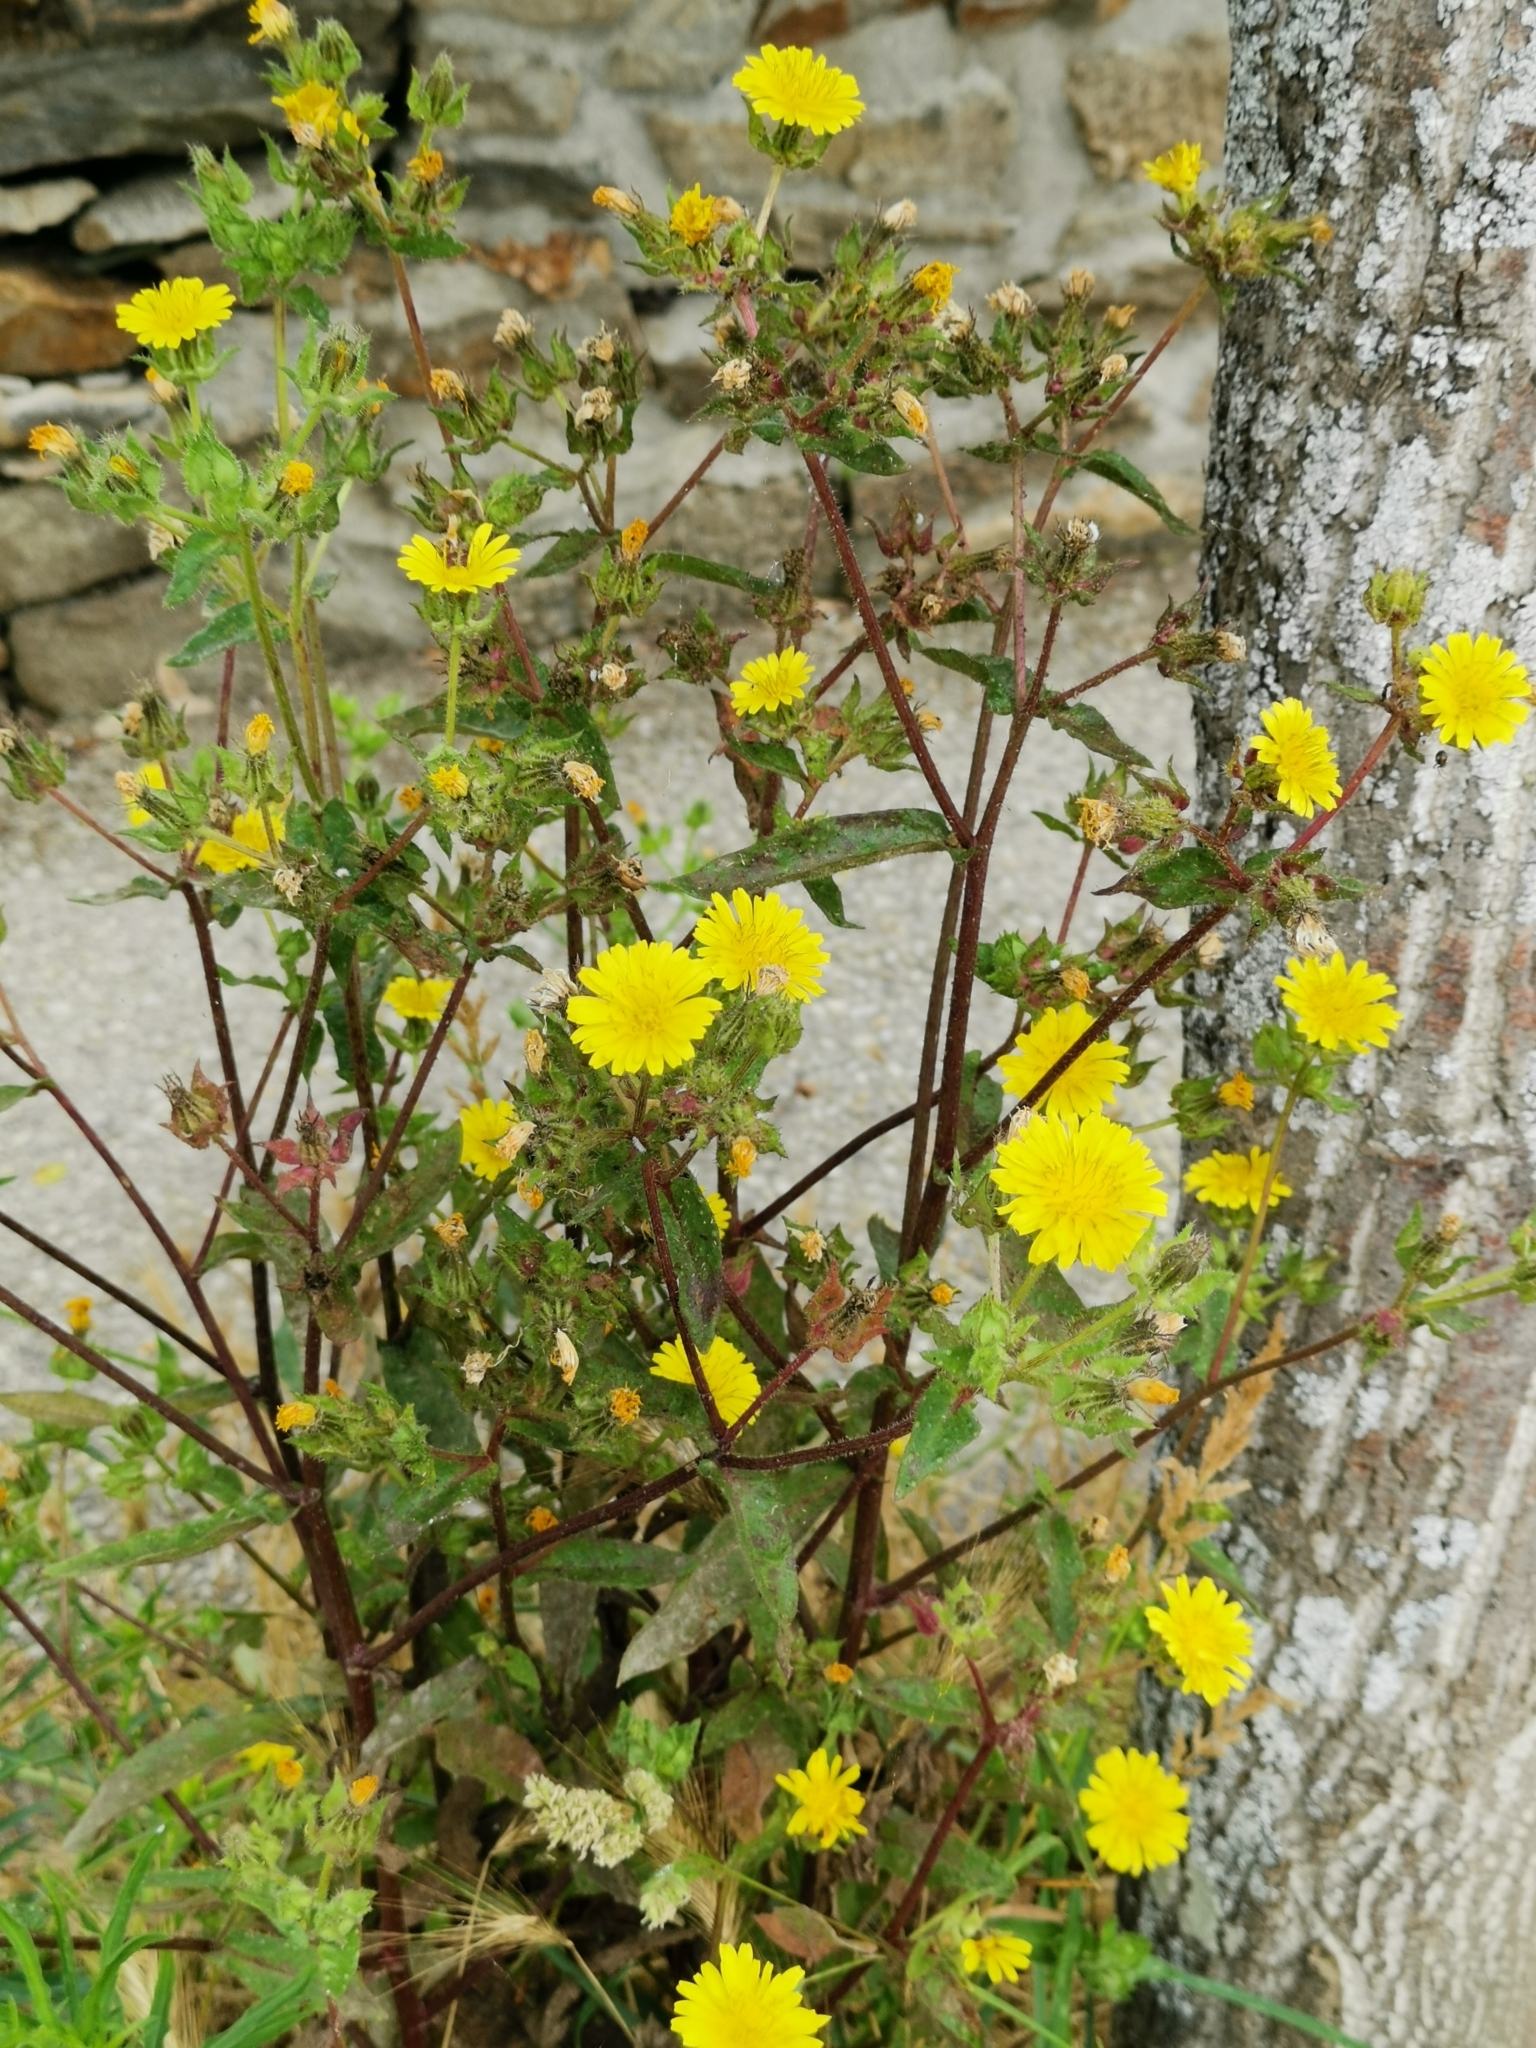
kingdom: Plantae
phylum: Tracheophyta
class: Magnoliopsida
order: Asterales
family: Asteraceae
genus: Helminthotheca
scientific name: Helminthotheca echioides
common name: Ox-tongue
